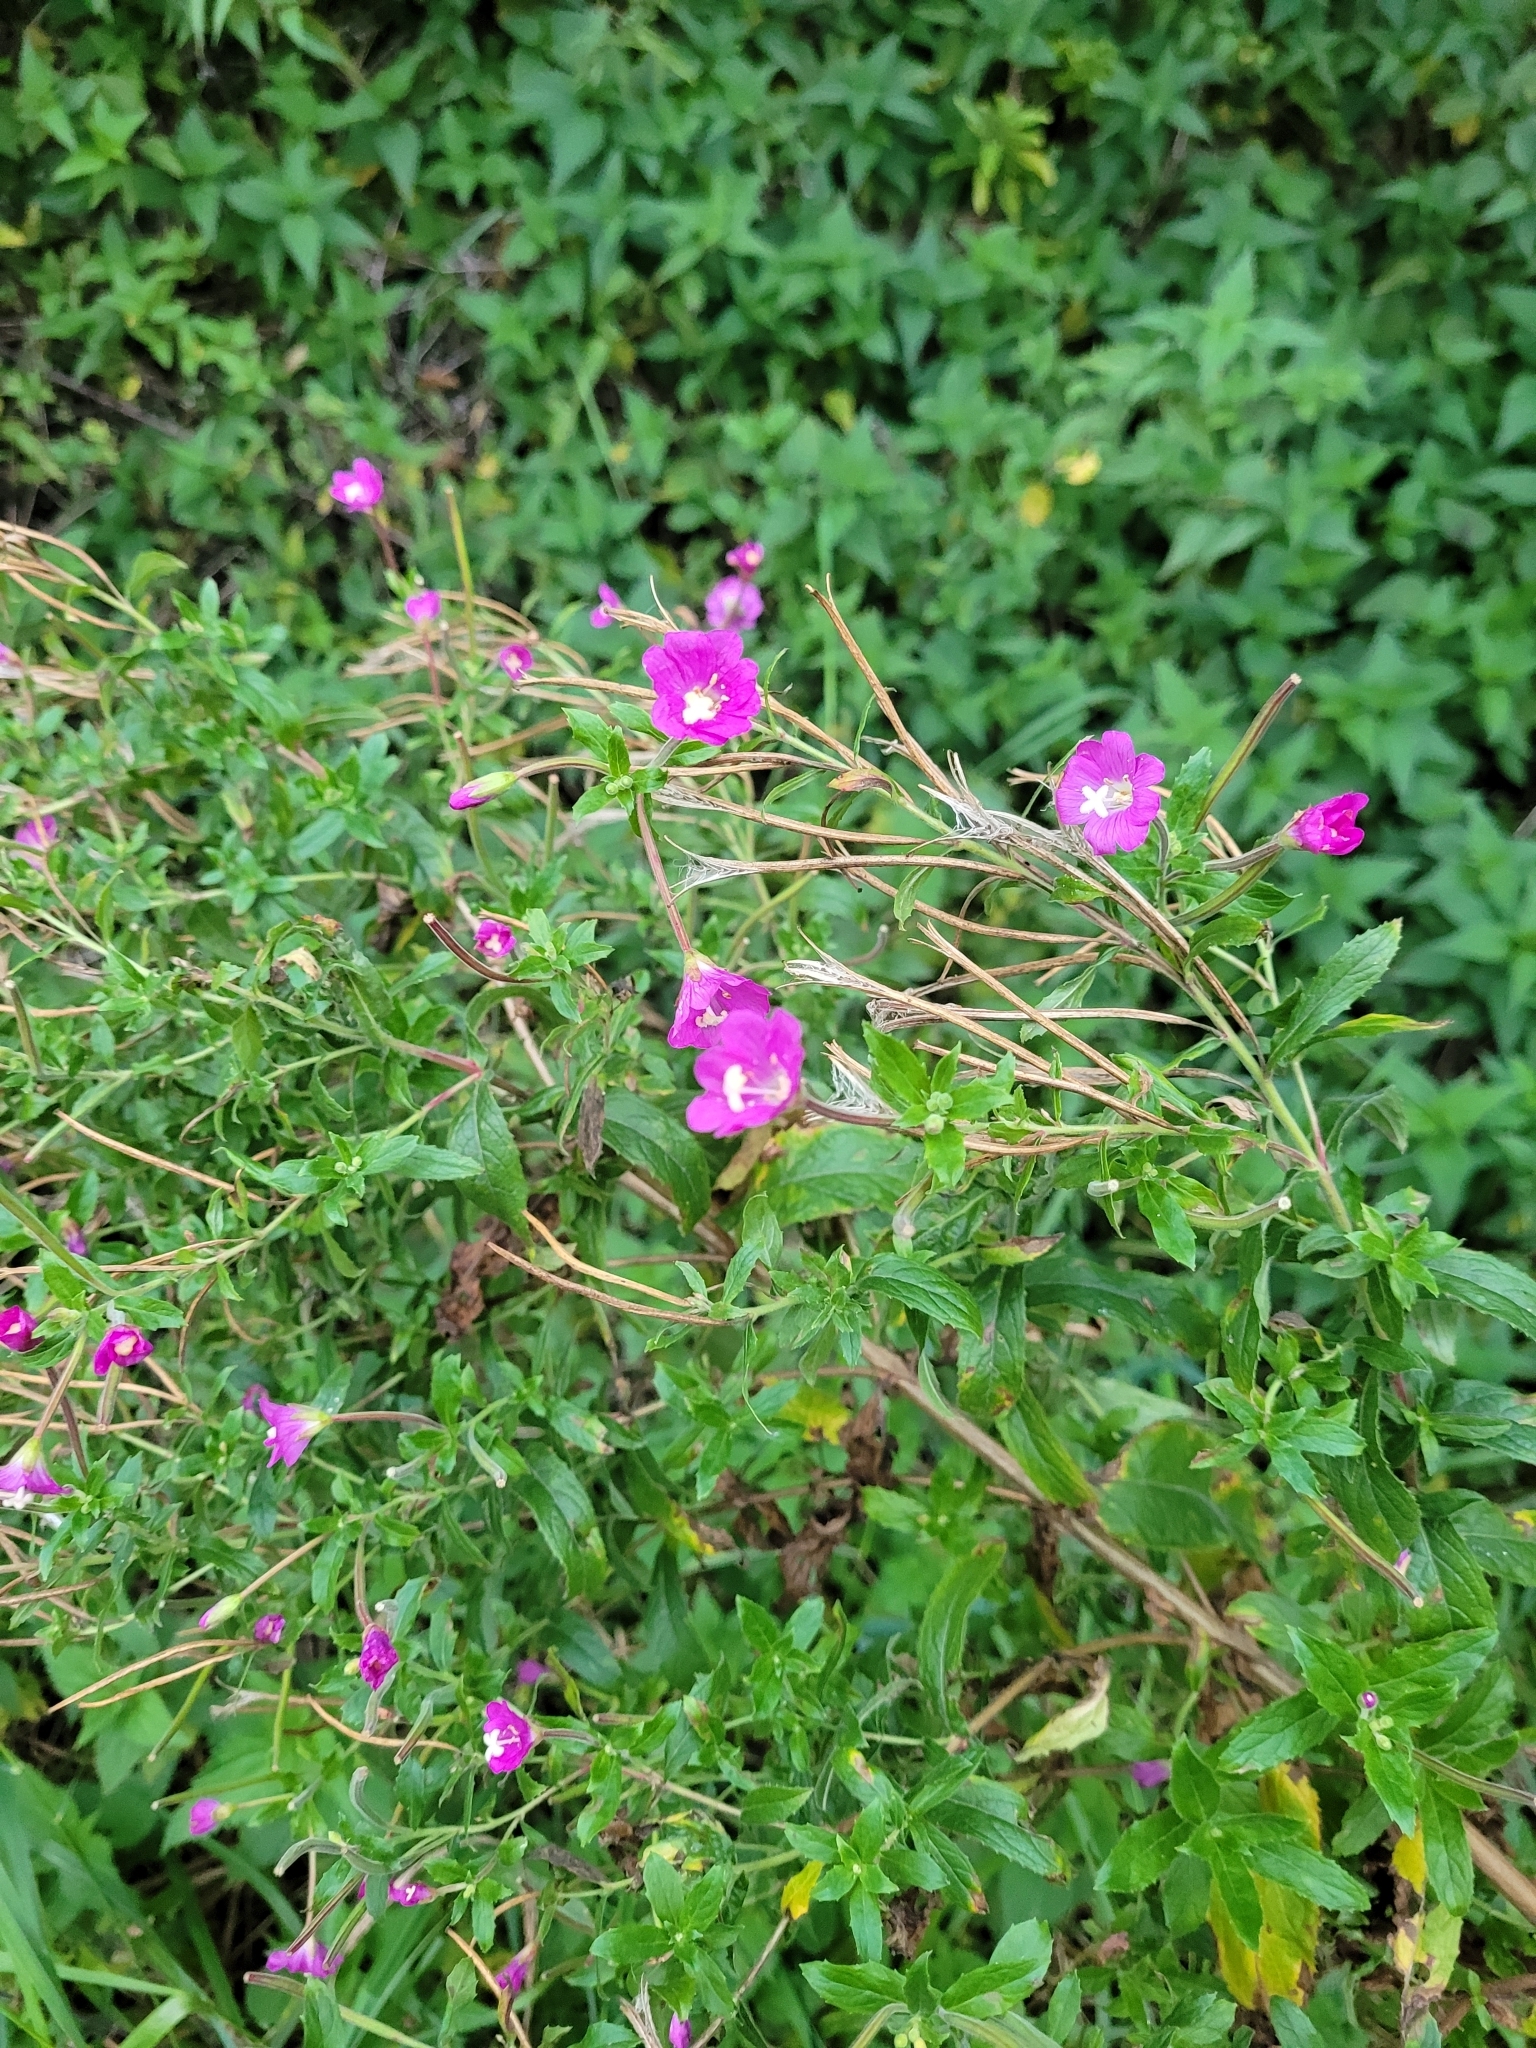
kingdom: Plantae
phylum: Tracheophyta
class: Magnoliopsida
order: Myrtales
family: Onagraceae
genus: Epilobium
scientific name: Epilobium hirsutum
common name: Great willowherb
